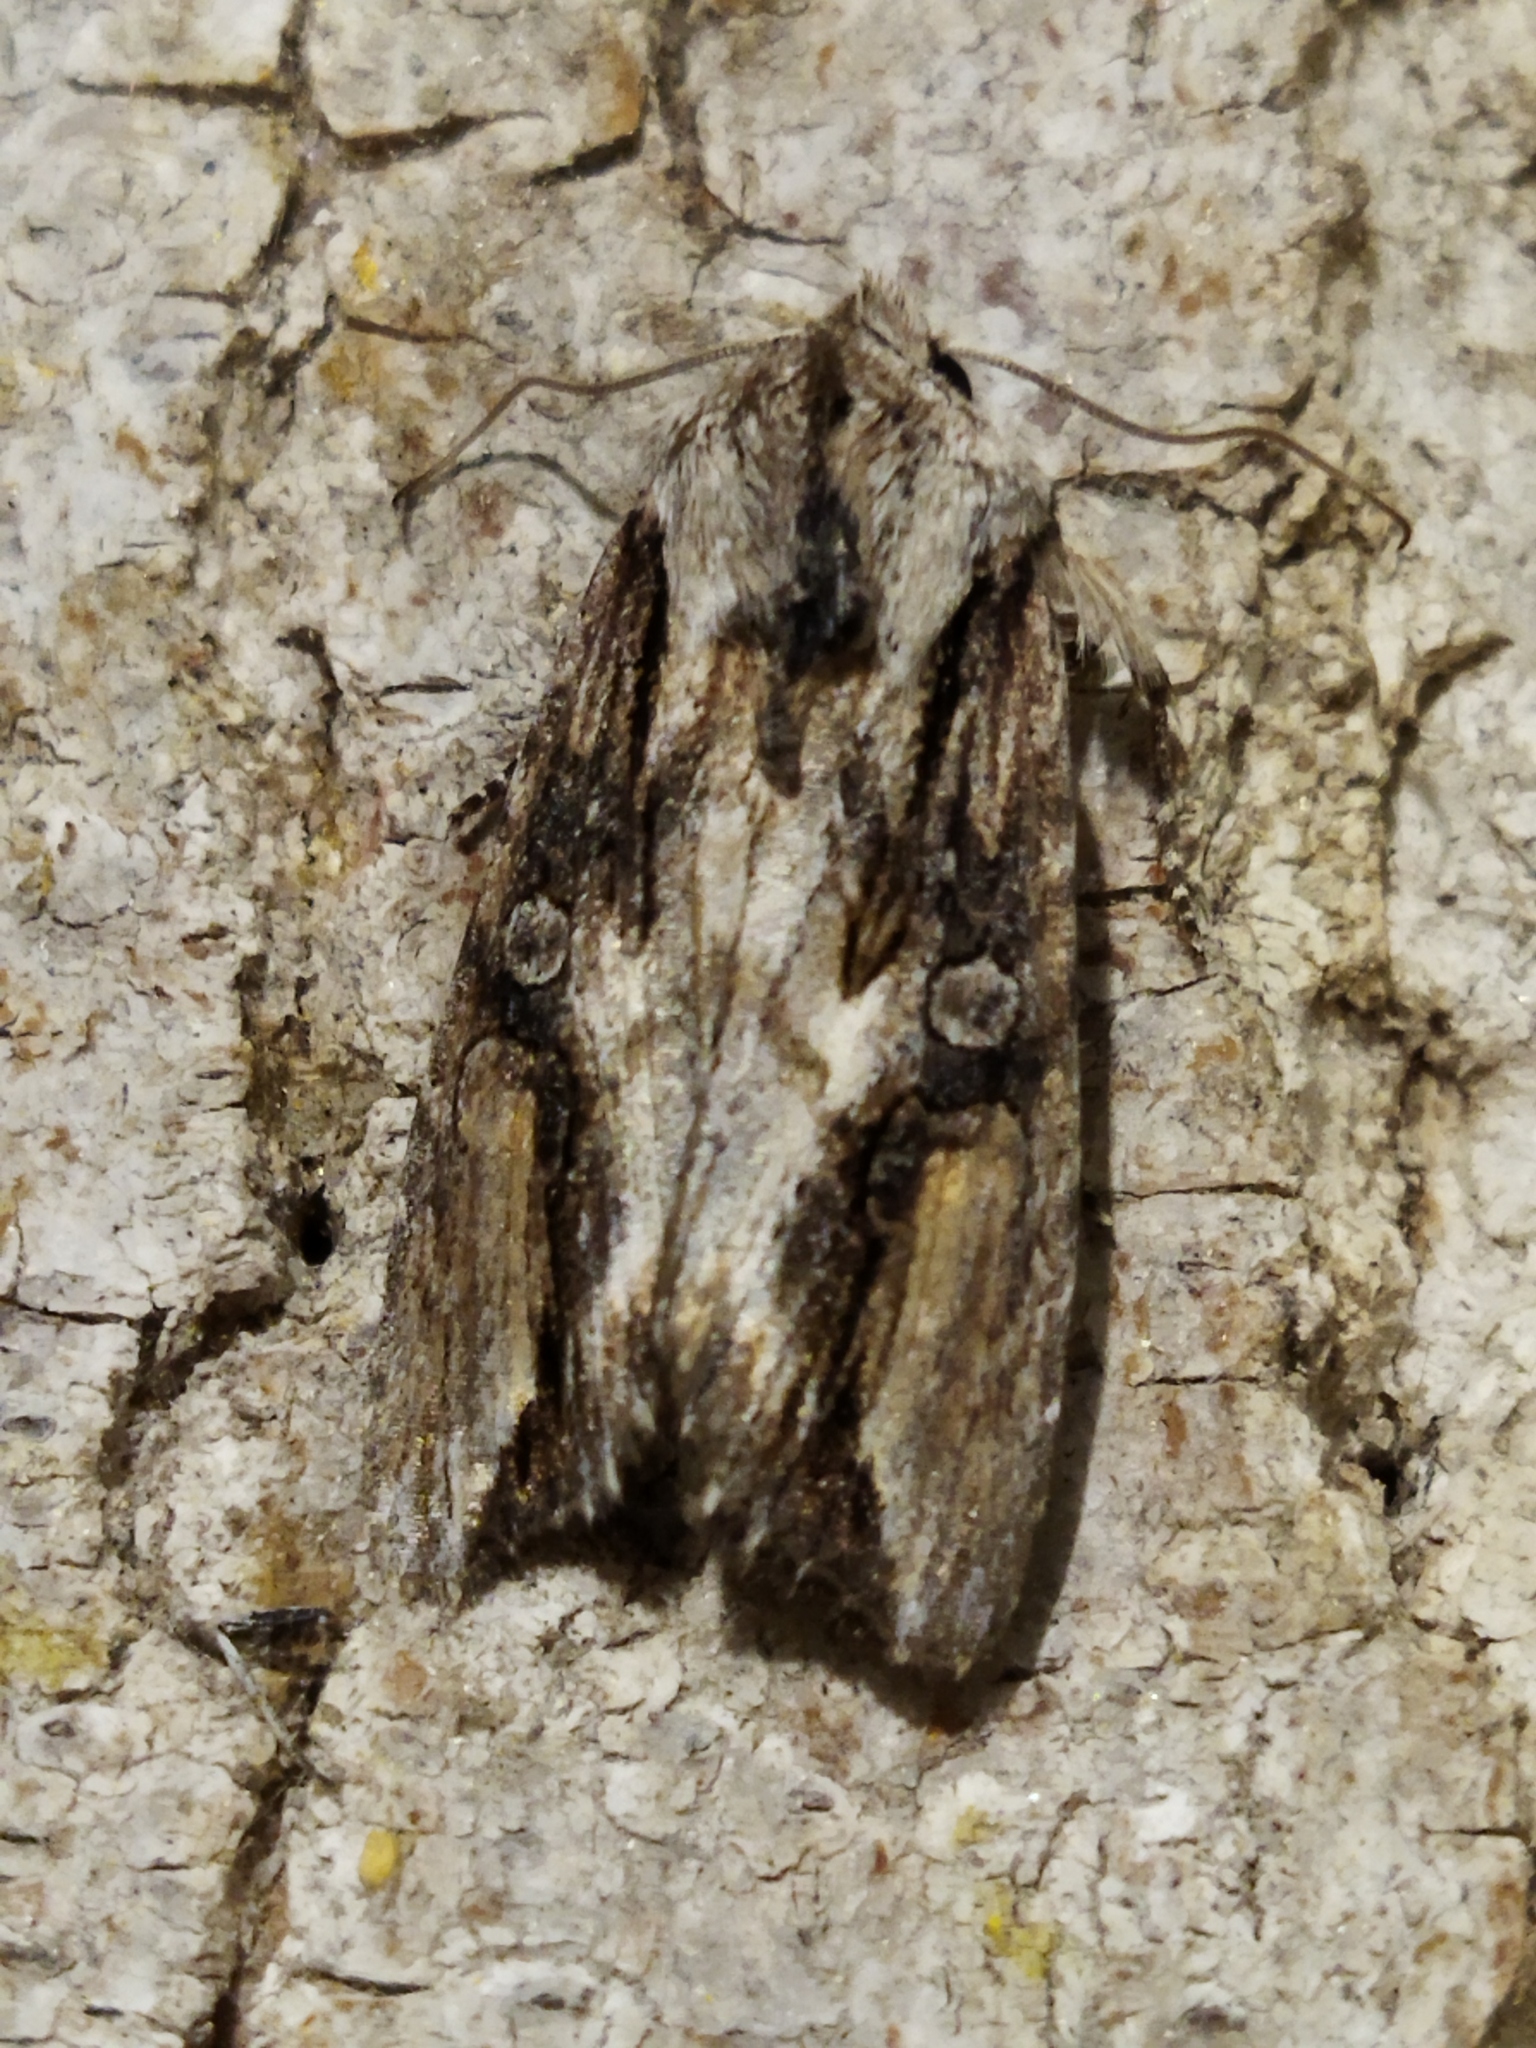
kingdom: Animalia
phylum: Arthropoda
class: Insecta
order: Lepidoptera
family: Noctuidae
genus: Egira
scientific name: Egira conspicillaris
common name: Silver cloud
